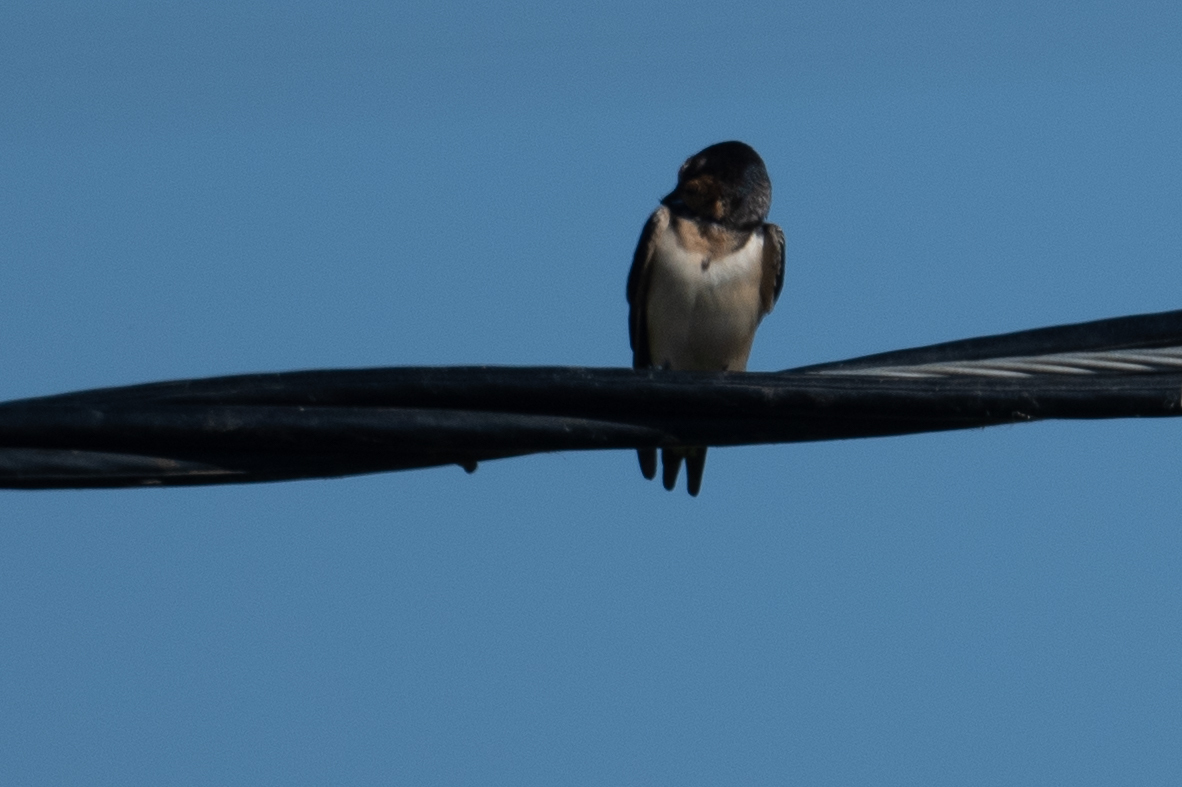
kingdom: Animalia
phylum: Chordata
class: Aves
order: Passeriformes
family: Hirundinidae
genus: Hirundo
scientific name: Hirundo rustica
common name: Barn swallow
